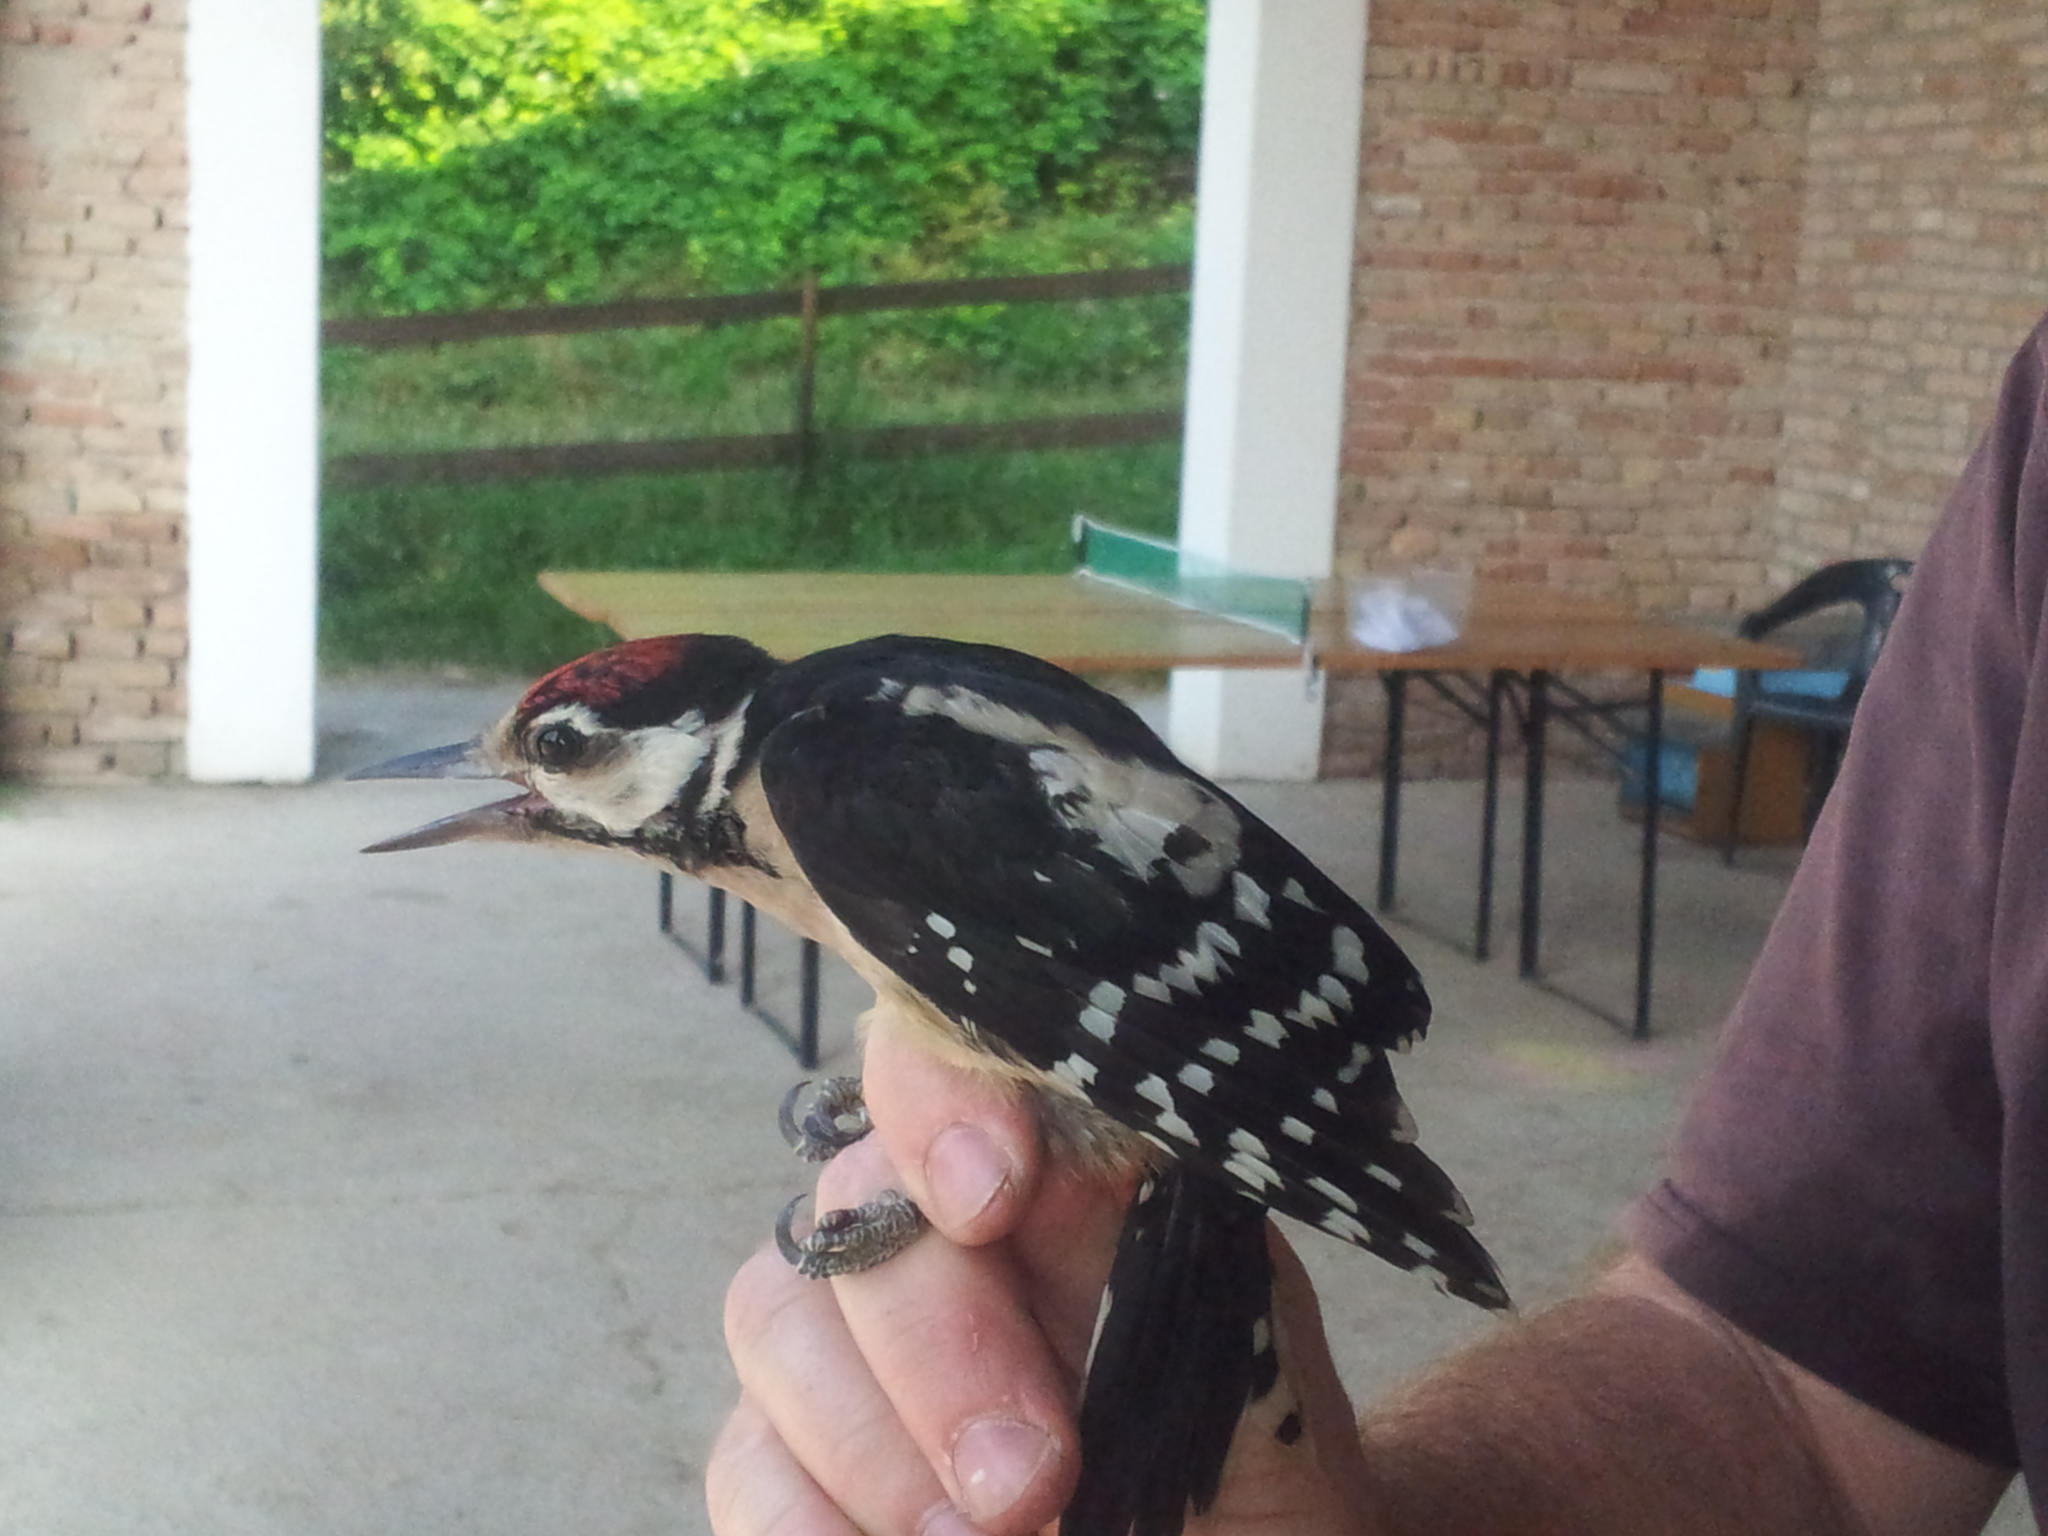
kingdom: Animalia
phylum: Chordata
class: Aves
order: Piciformes
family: Picidae
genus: Dendrocopos
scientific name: Dendrocopos major
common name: Great spotted woodpecker
